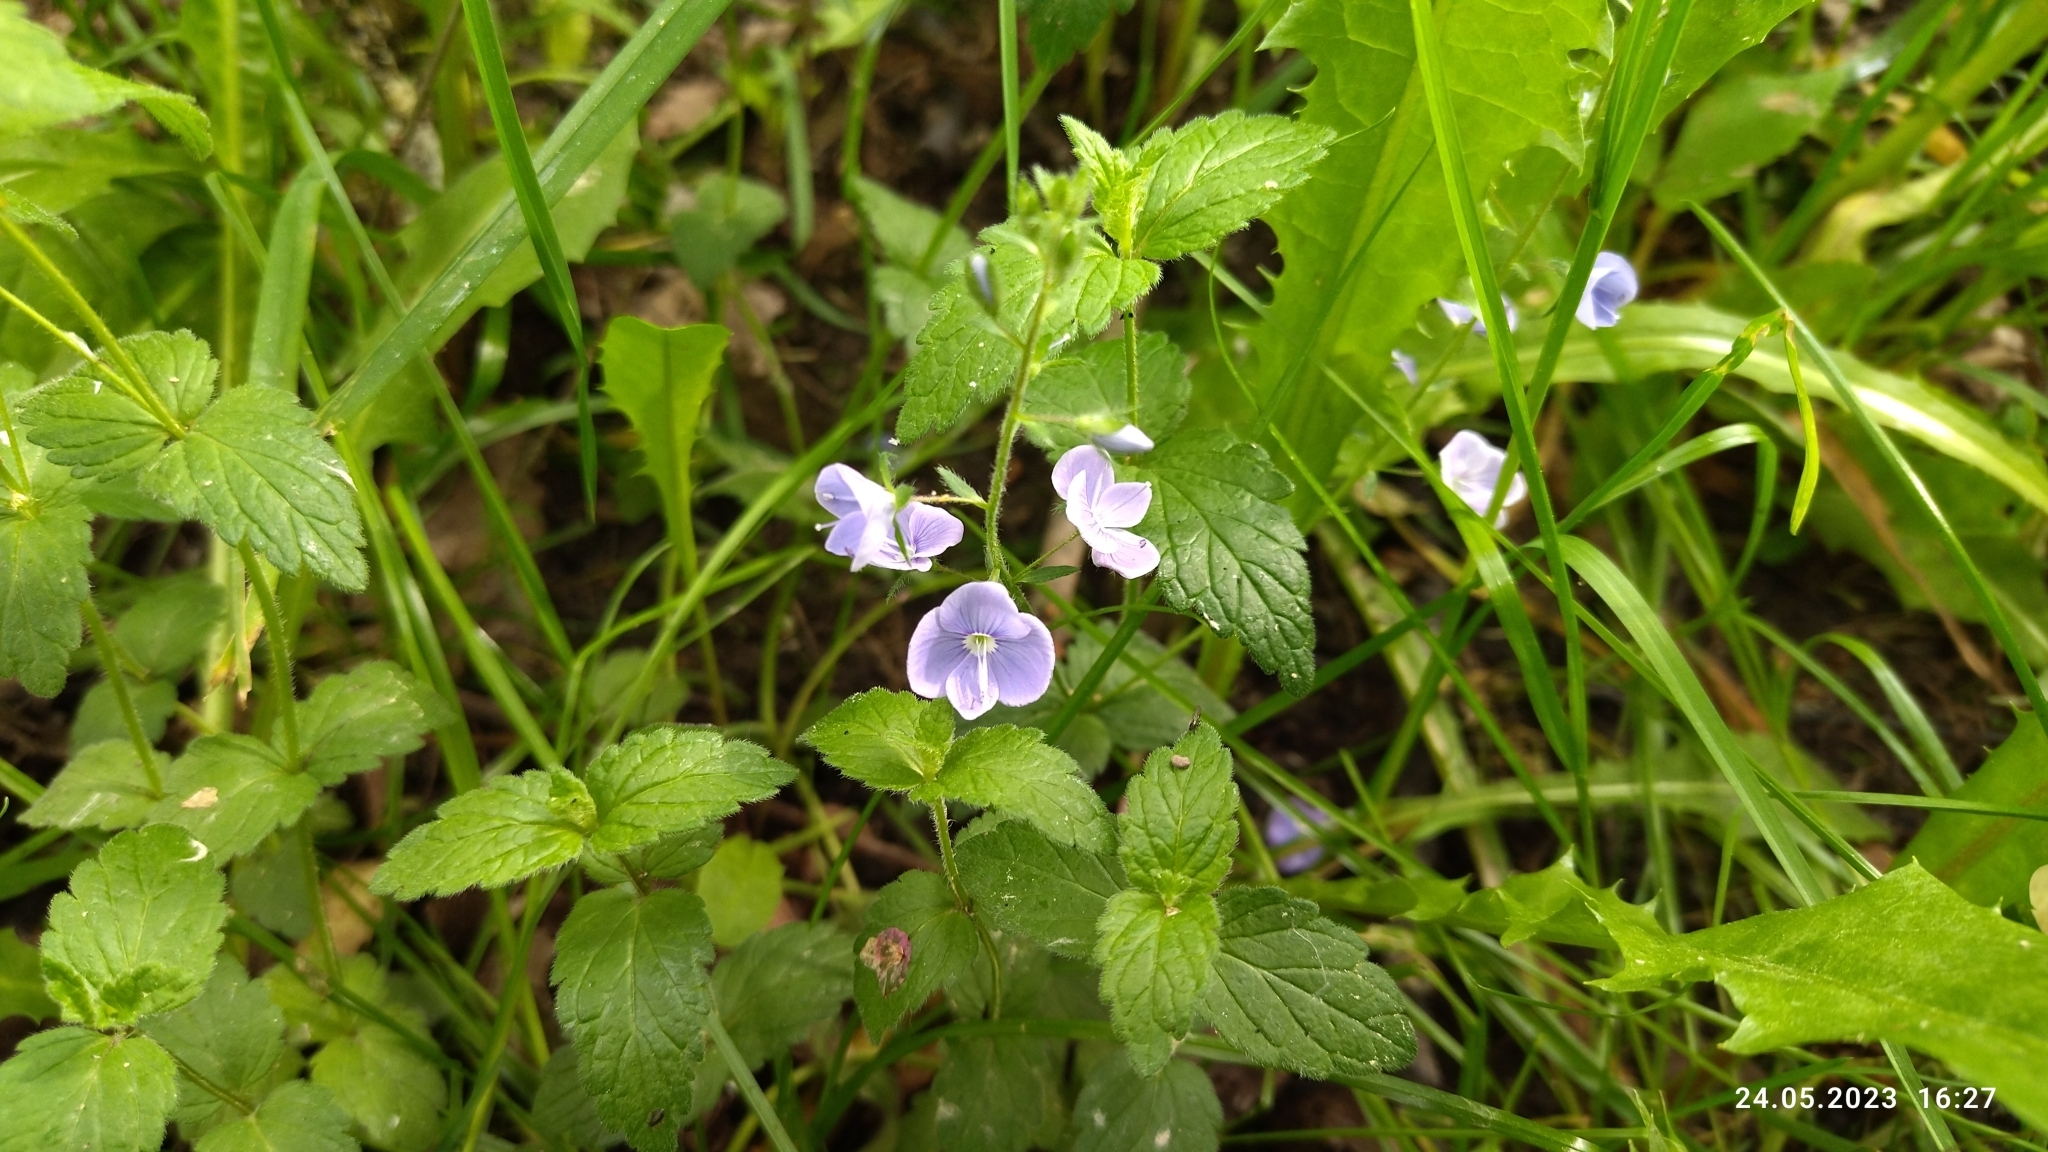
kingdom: Plantae
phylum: Tracheophyta
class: Magnoliopsida
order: Lamiales
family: Plantaginaceae
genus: Veronica
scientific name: Veronica chamaedrys
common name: Germander speedwell
